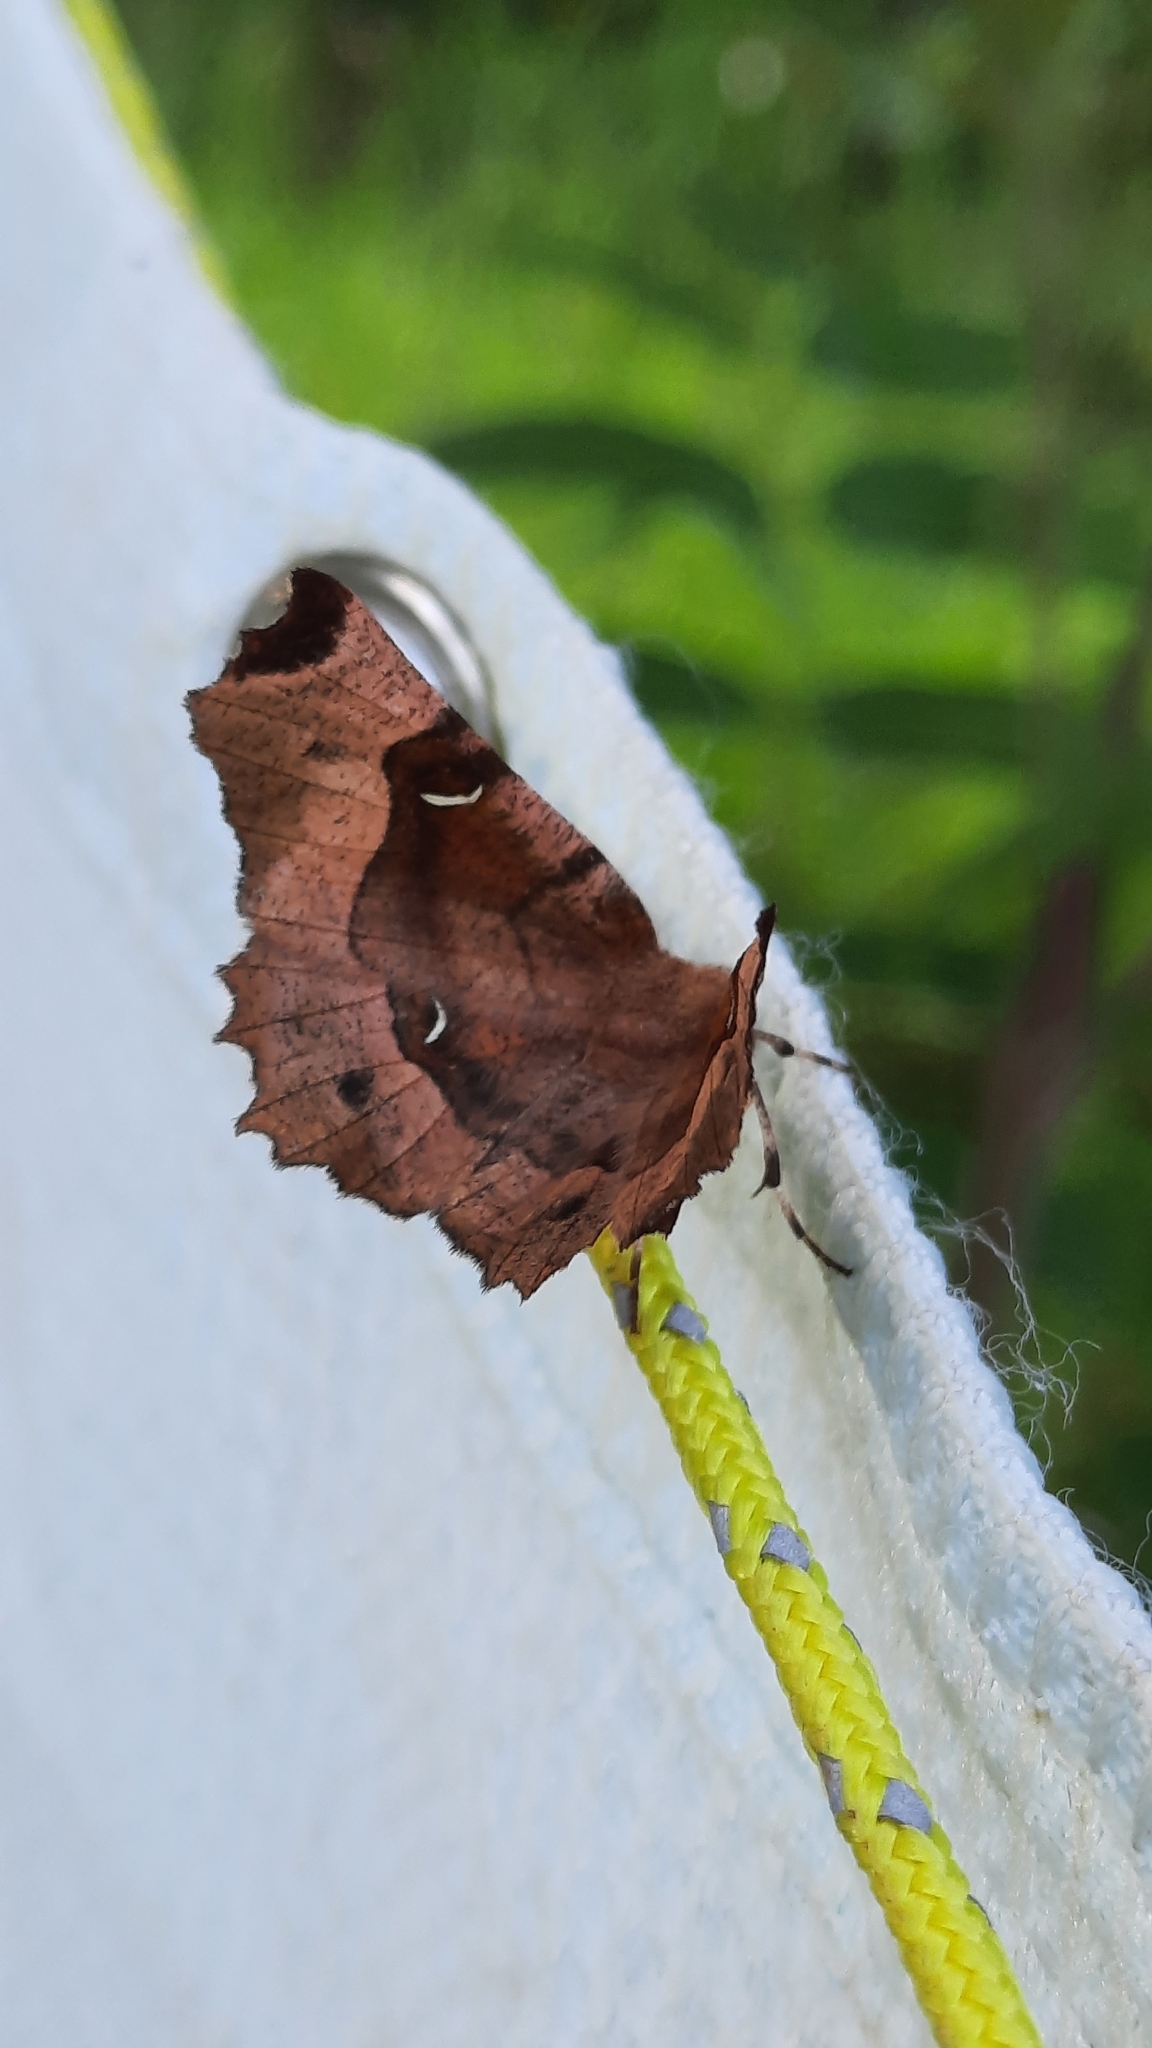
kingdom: Animalia
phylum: Arthropoda
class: Insecta
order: Lepidoptera
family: Geometridae
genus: Selenia
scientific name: Selenia tetralunaria
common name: Purple thorn
